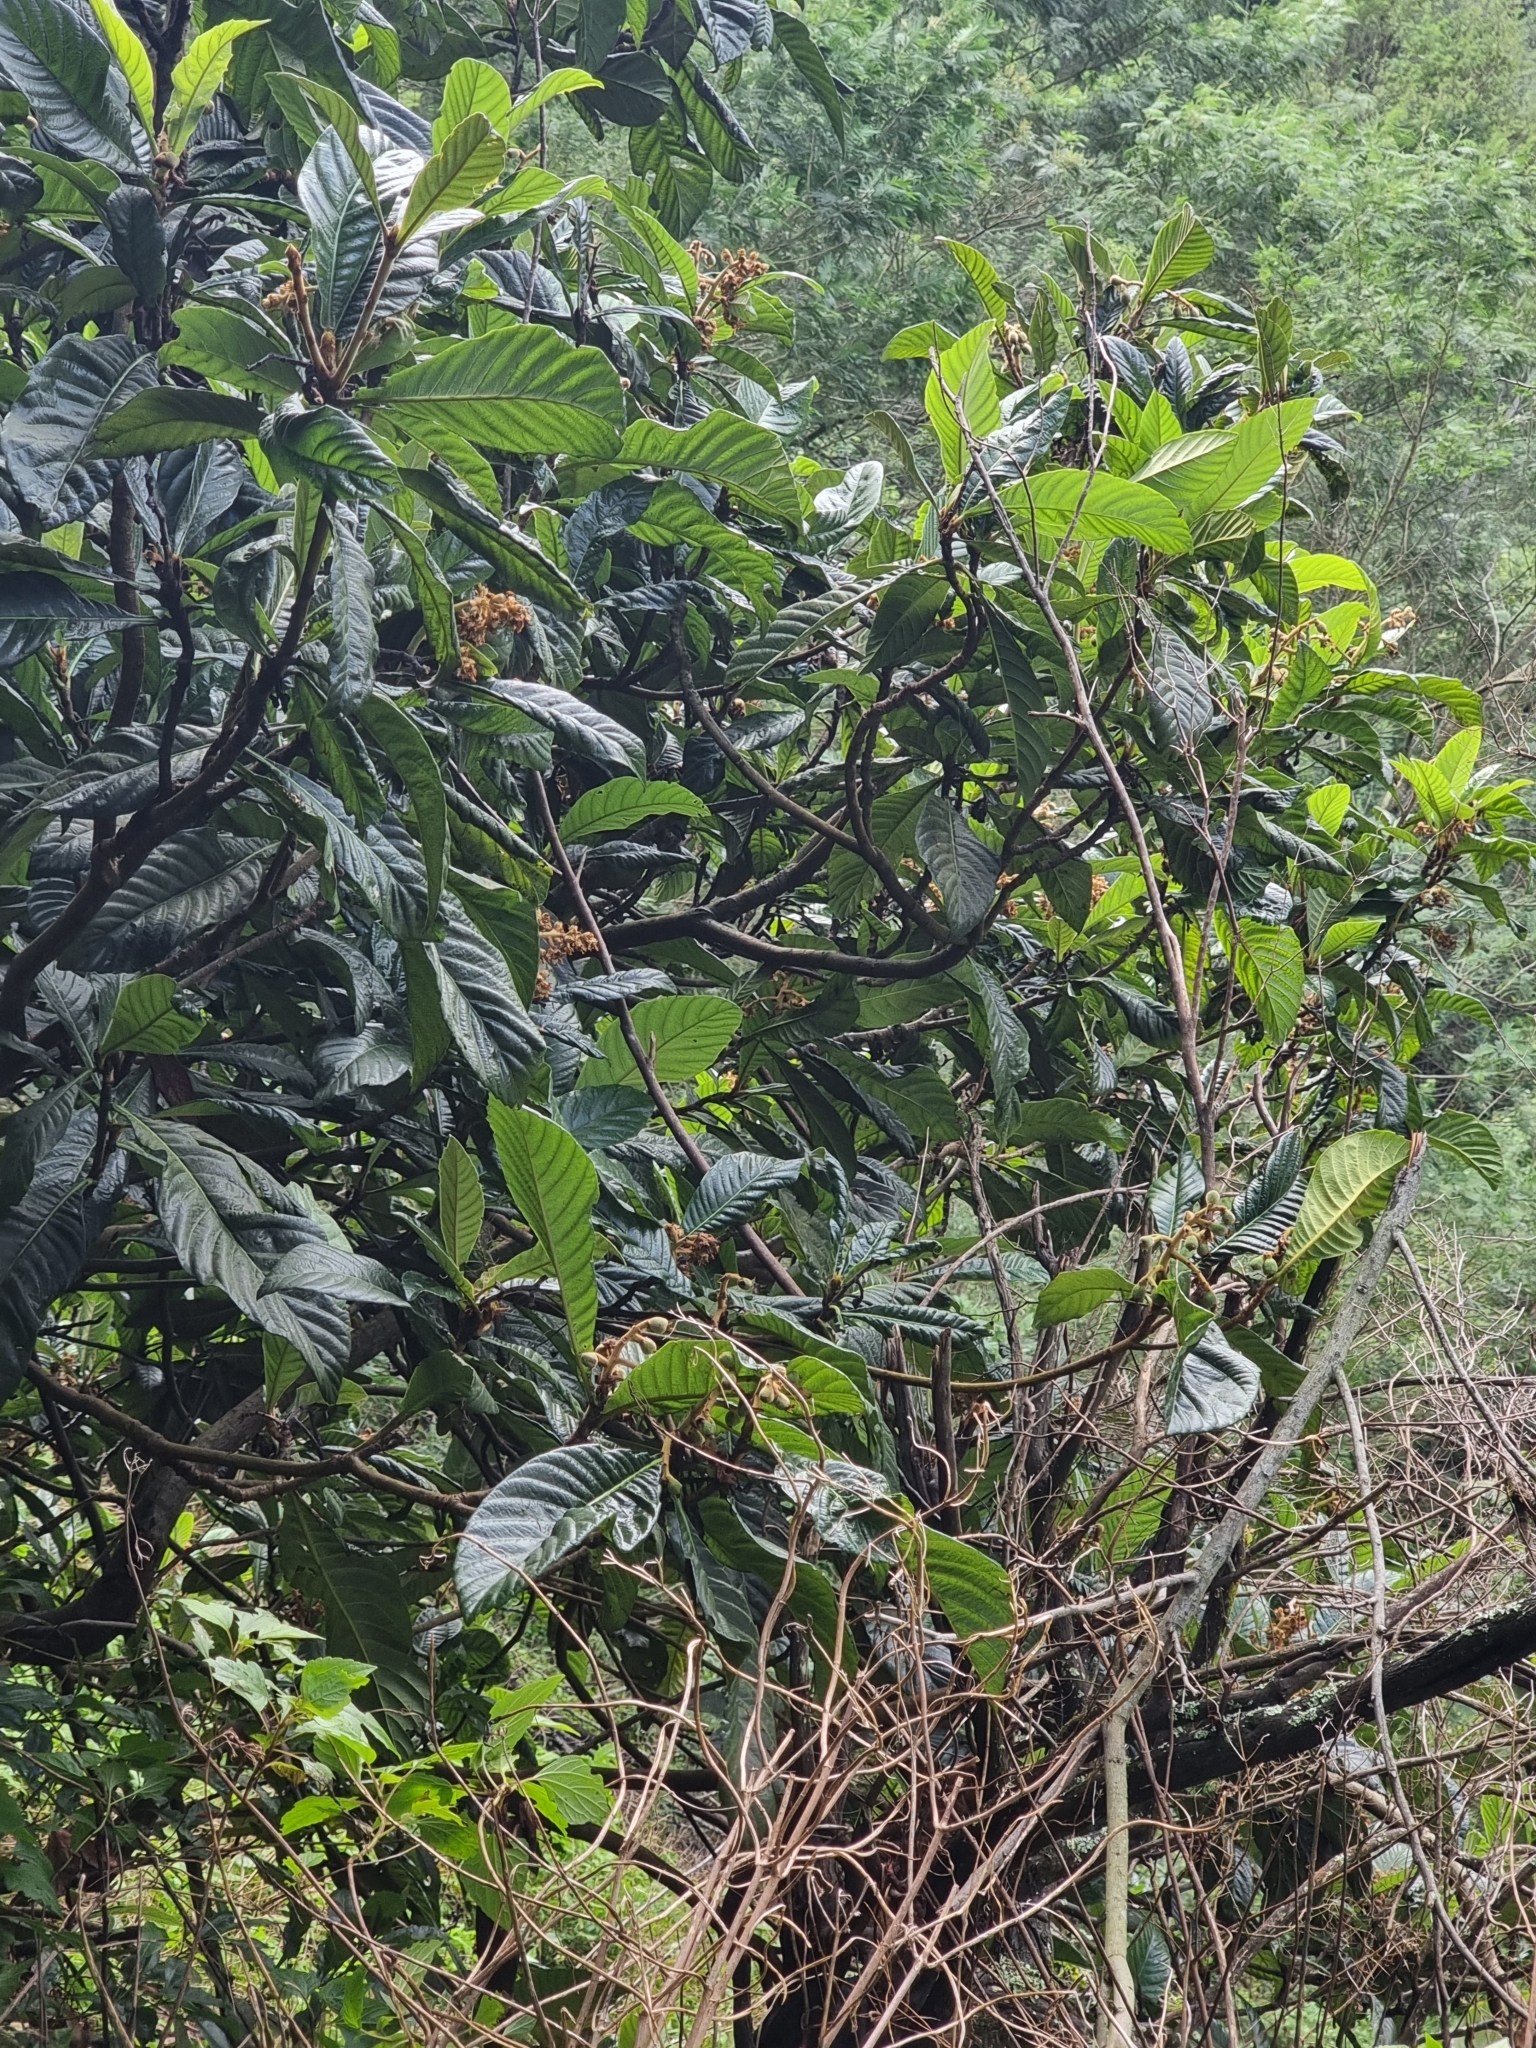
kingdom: Plantae
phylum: Tracheophyta
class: Magnoliopsida
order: Rosales
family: Rosaceae
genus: Rhaphiolepis
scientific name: Rhaphiolepis bibas
